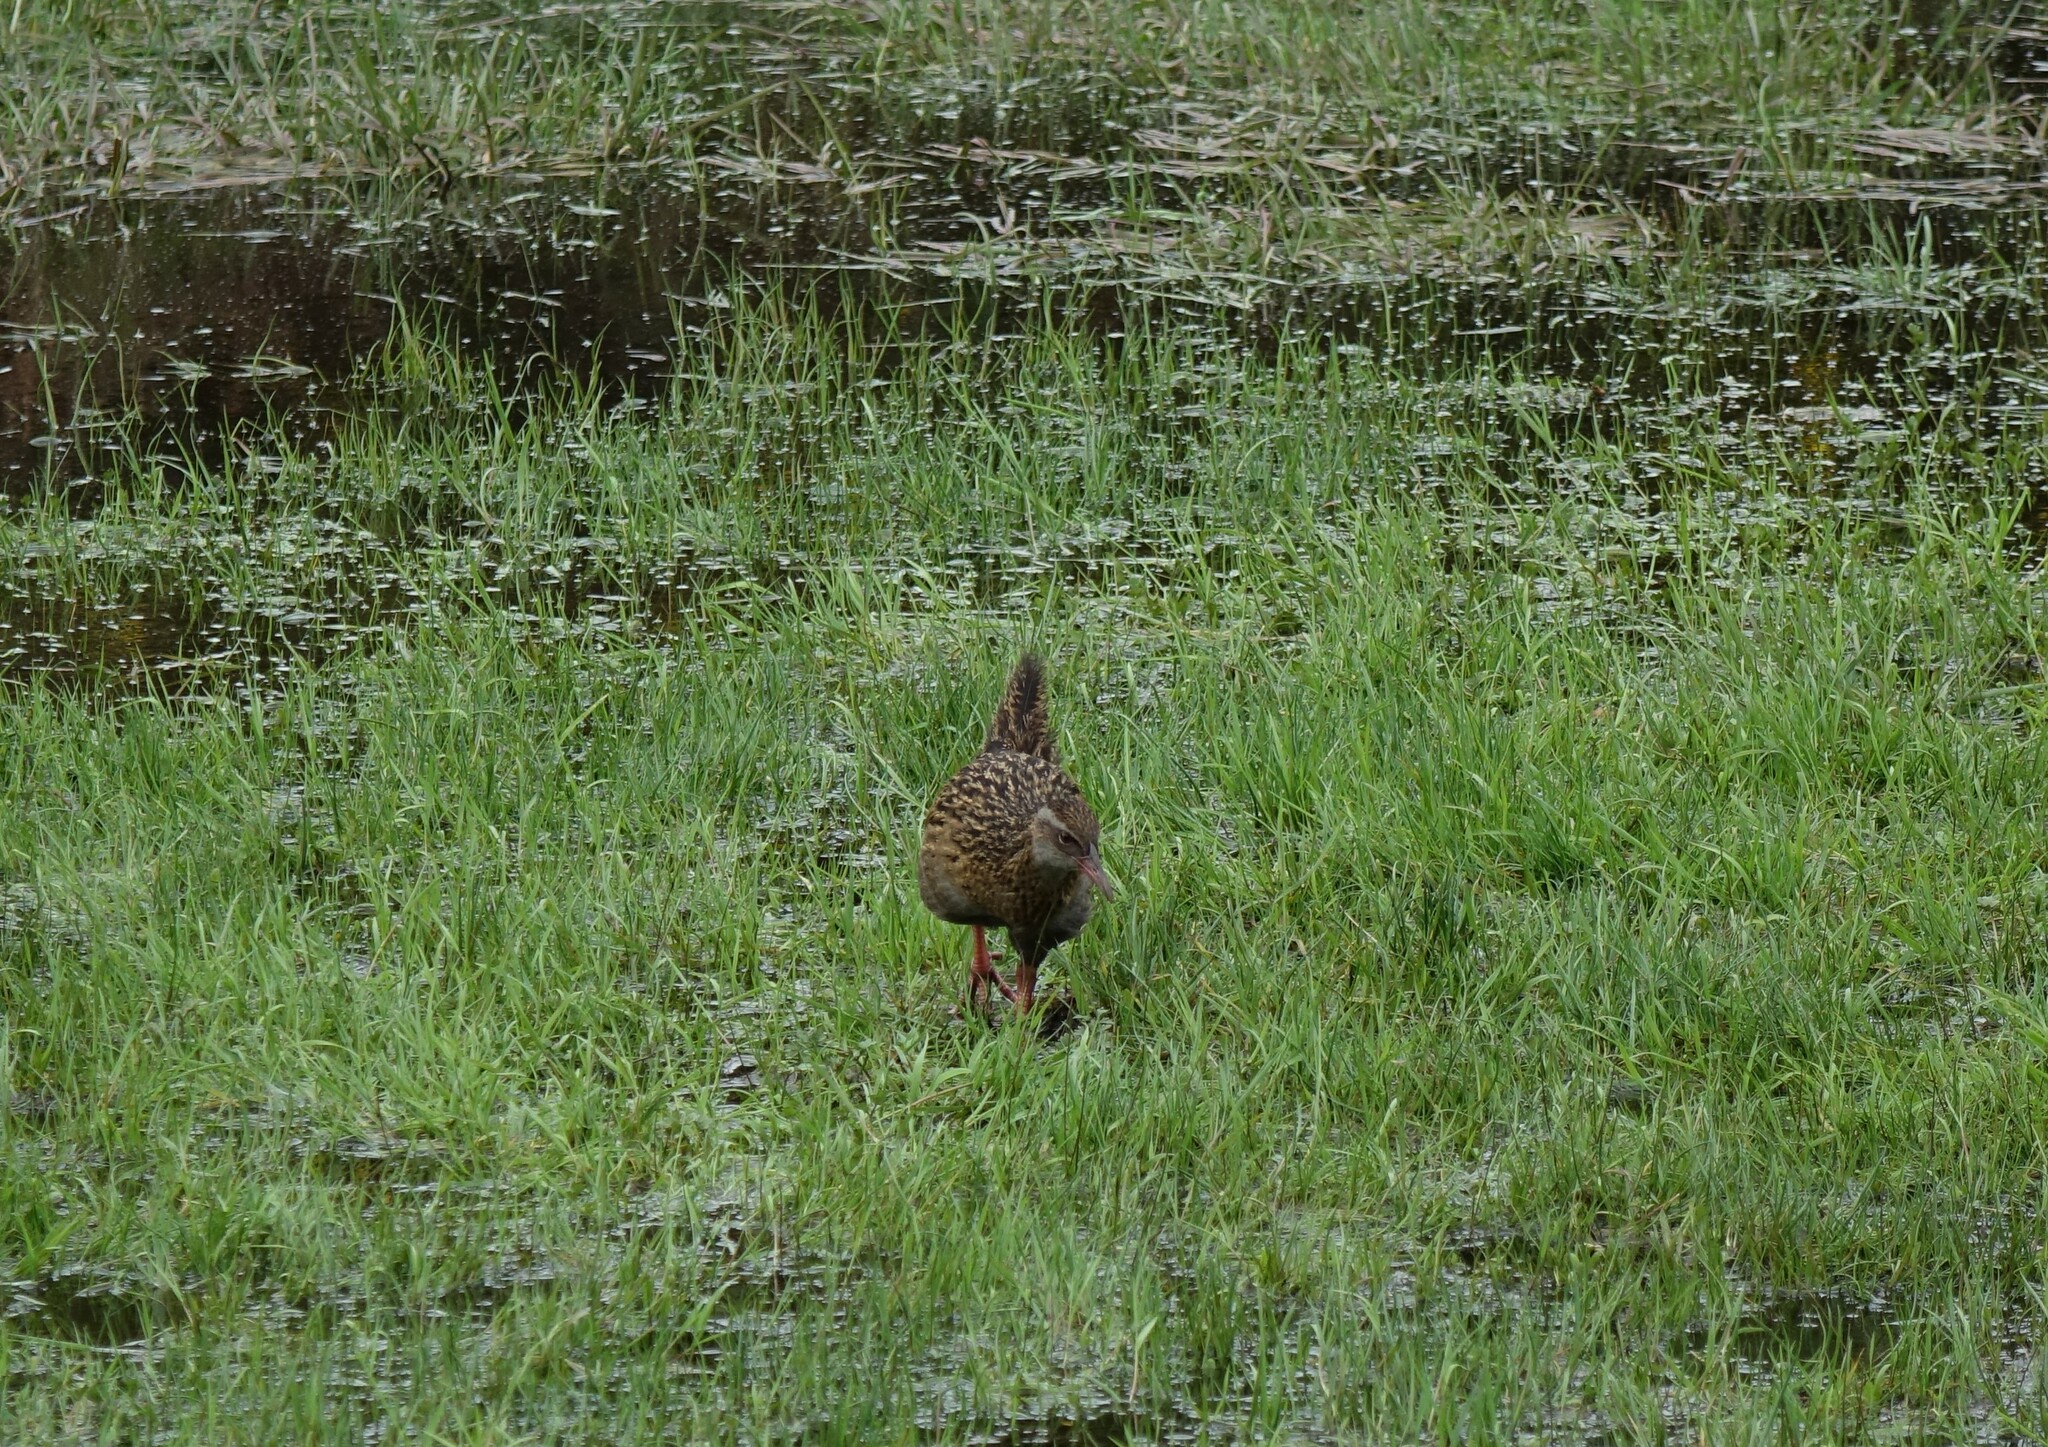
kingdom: Animalia
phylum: Chordata
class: Aves
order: Gruiformes
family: Rallidae
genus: Gallirallus
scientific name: Gallirallus australis
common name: Weka
